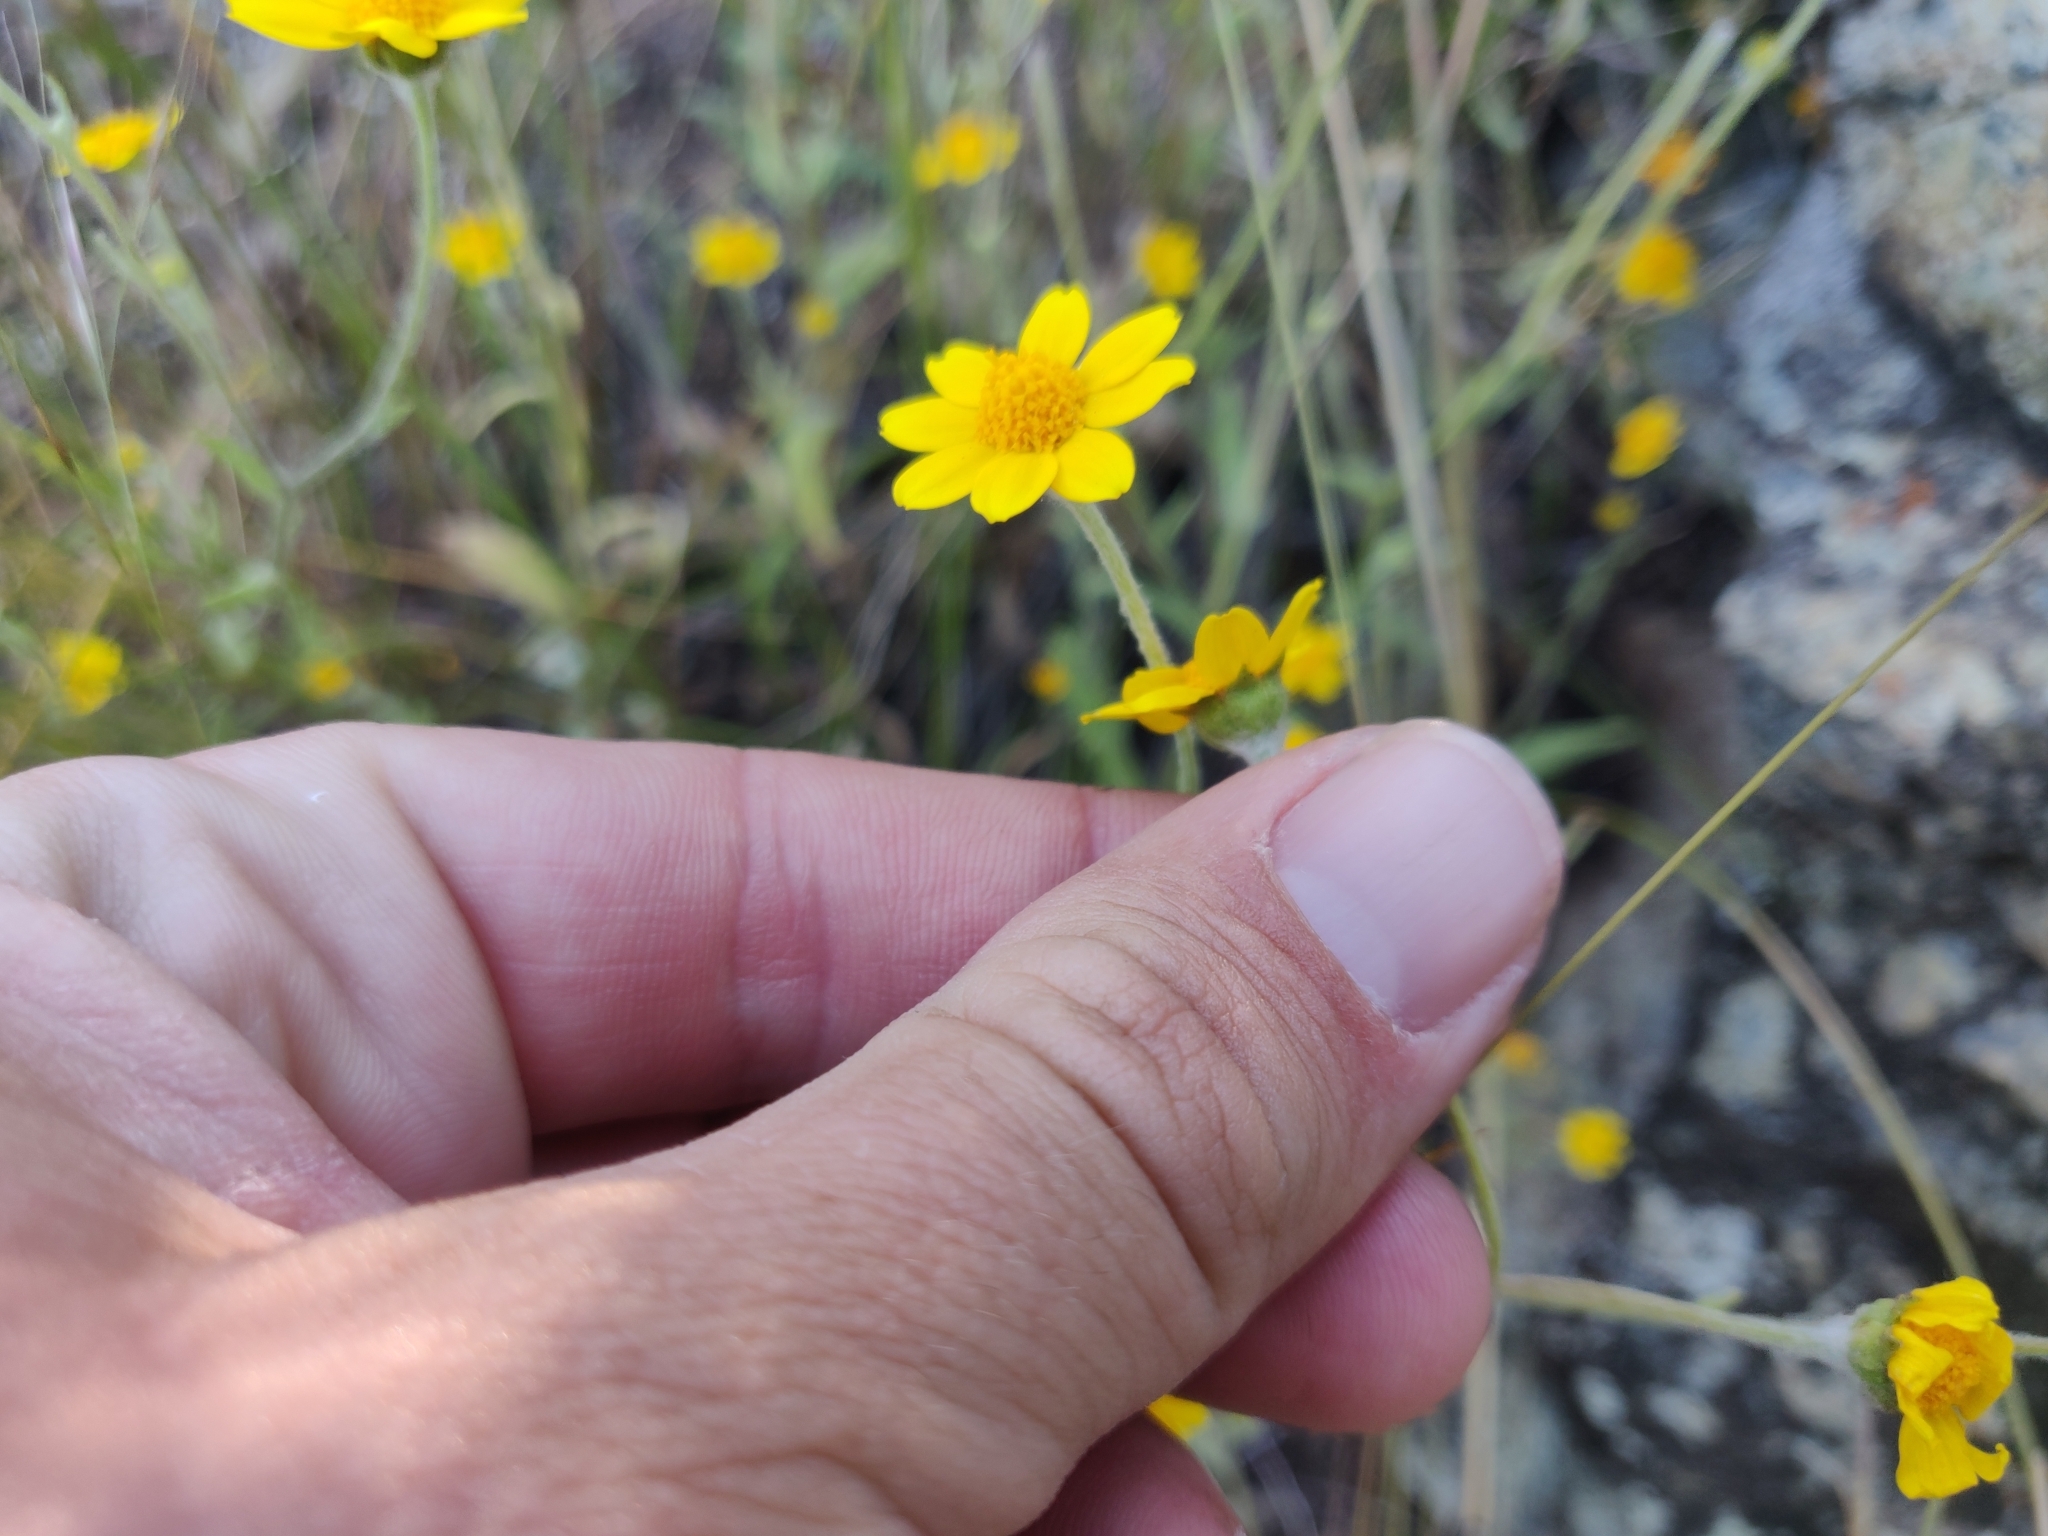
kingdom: Plantae
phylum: Tracheophyta
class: Magnoliopsida
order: Asterales
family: Asteraceae
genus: Monolopia
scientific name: Monolopia gracilens
